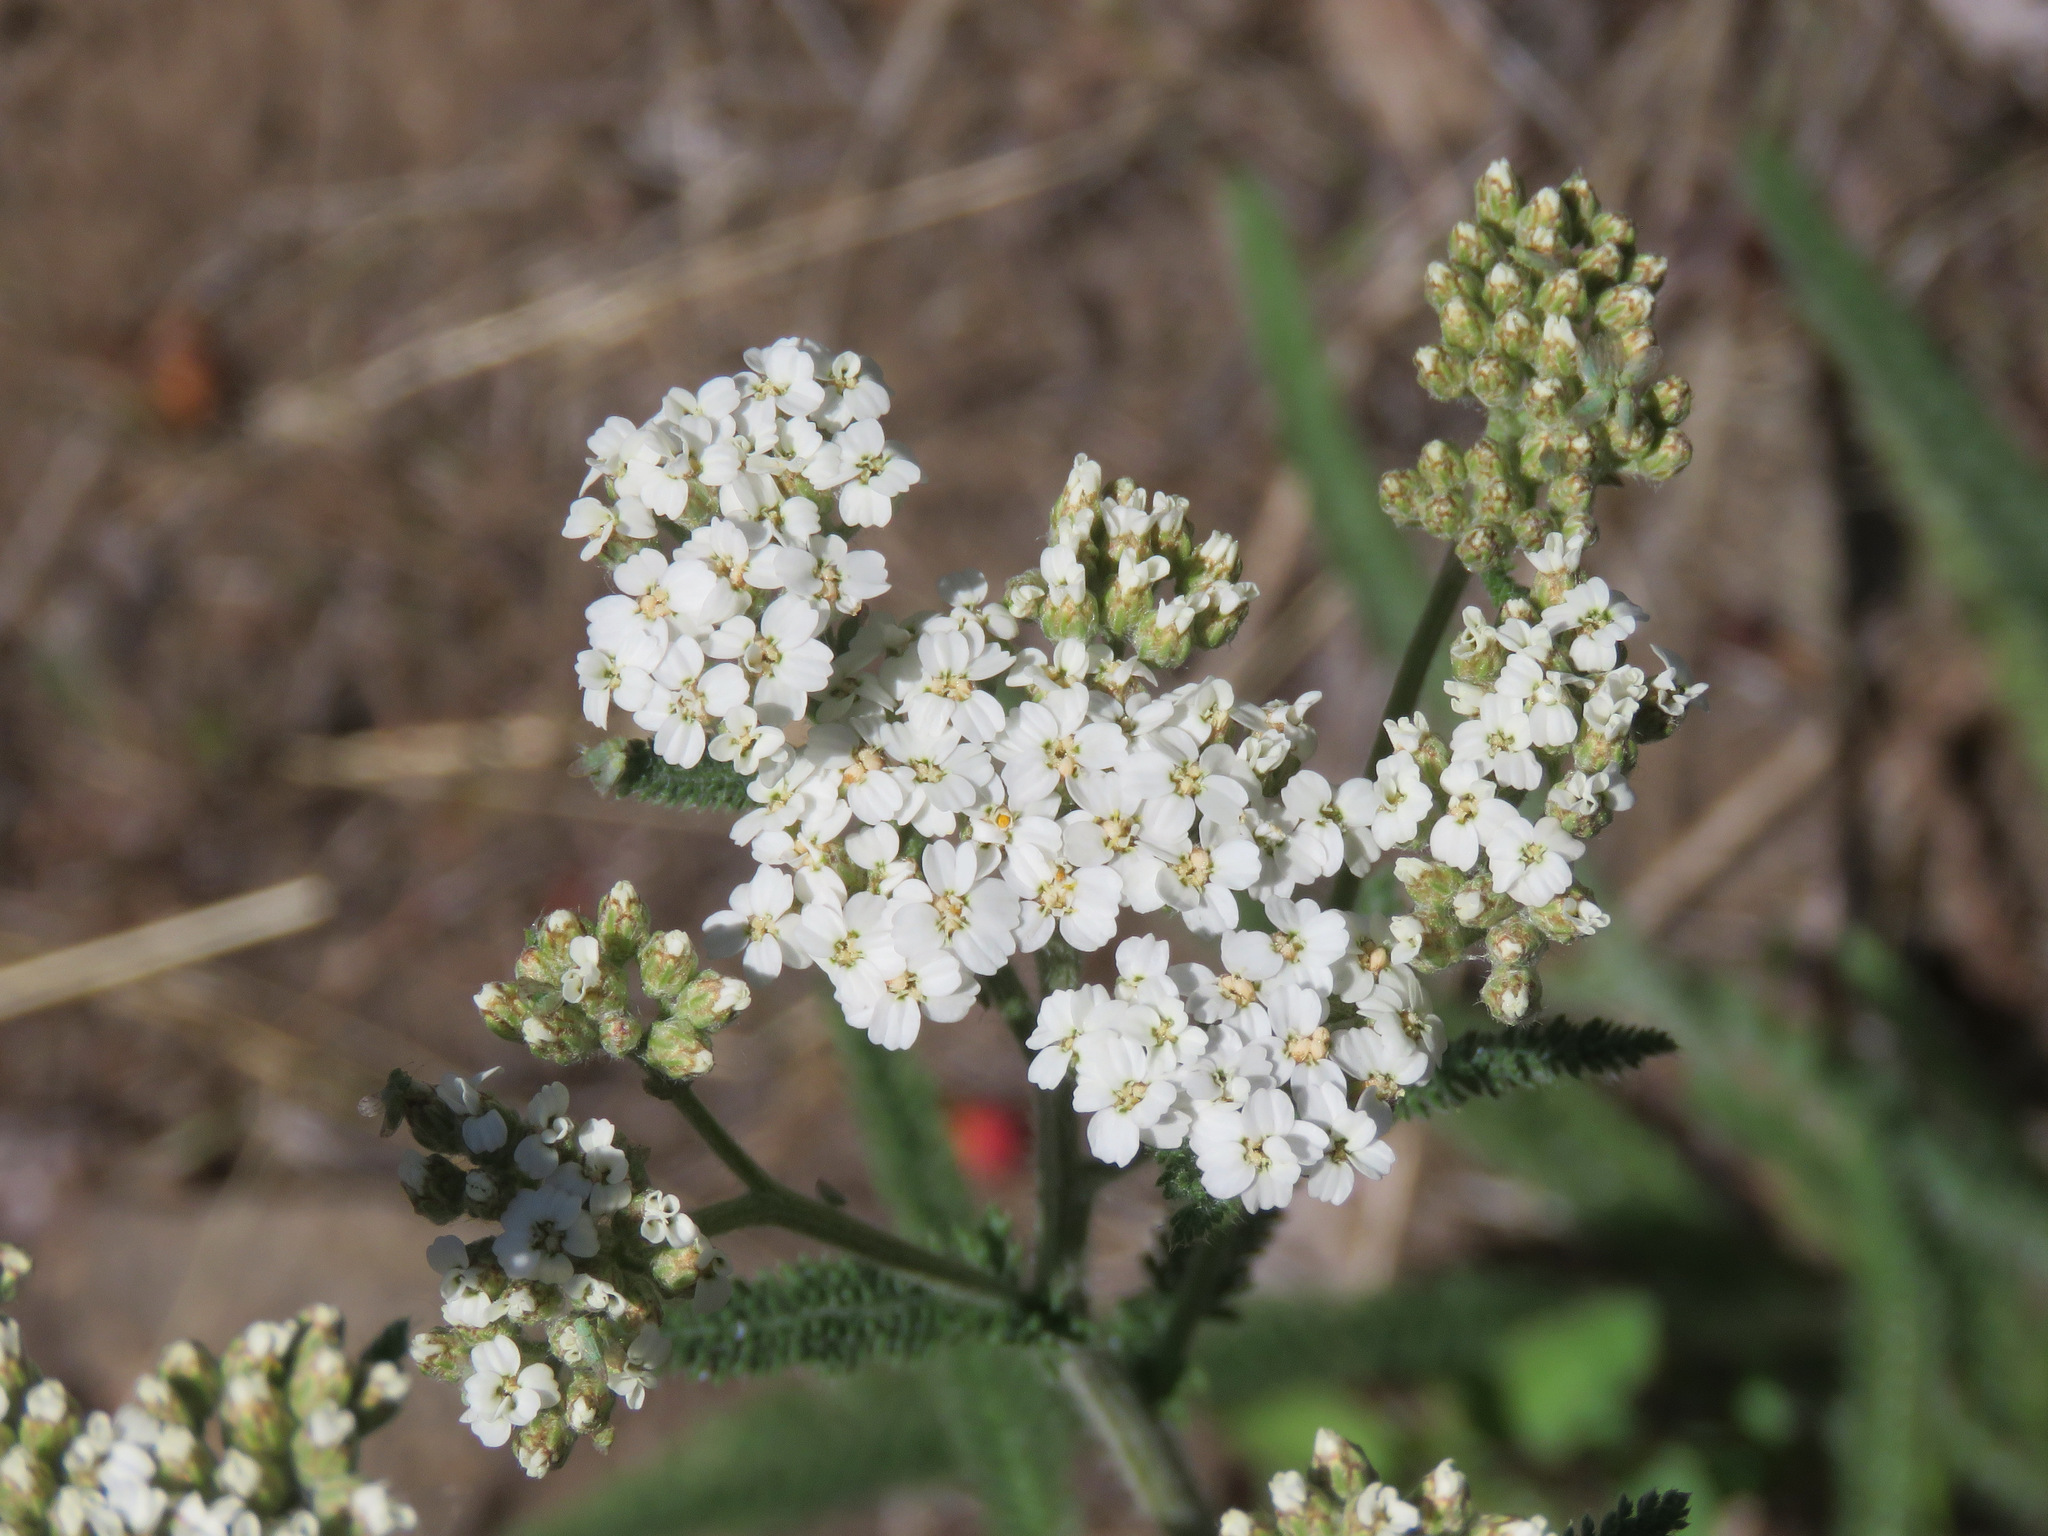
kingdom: Plantae
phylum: Tracheophyta
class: Magnoliopsida
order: Asterales
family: Asteraceae
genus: Achillea
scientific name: Achillea millefolium
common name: Yarrow
